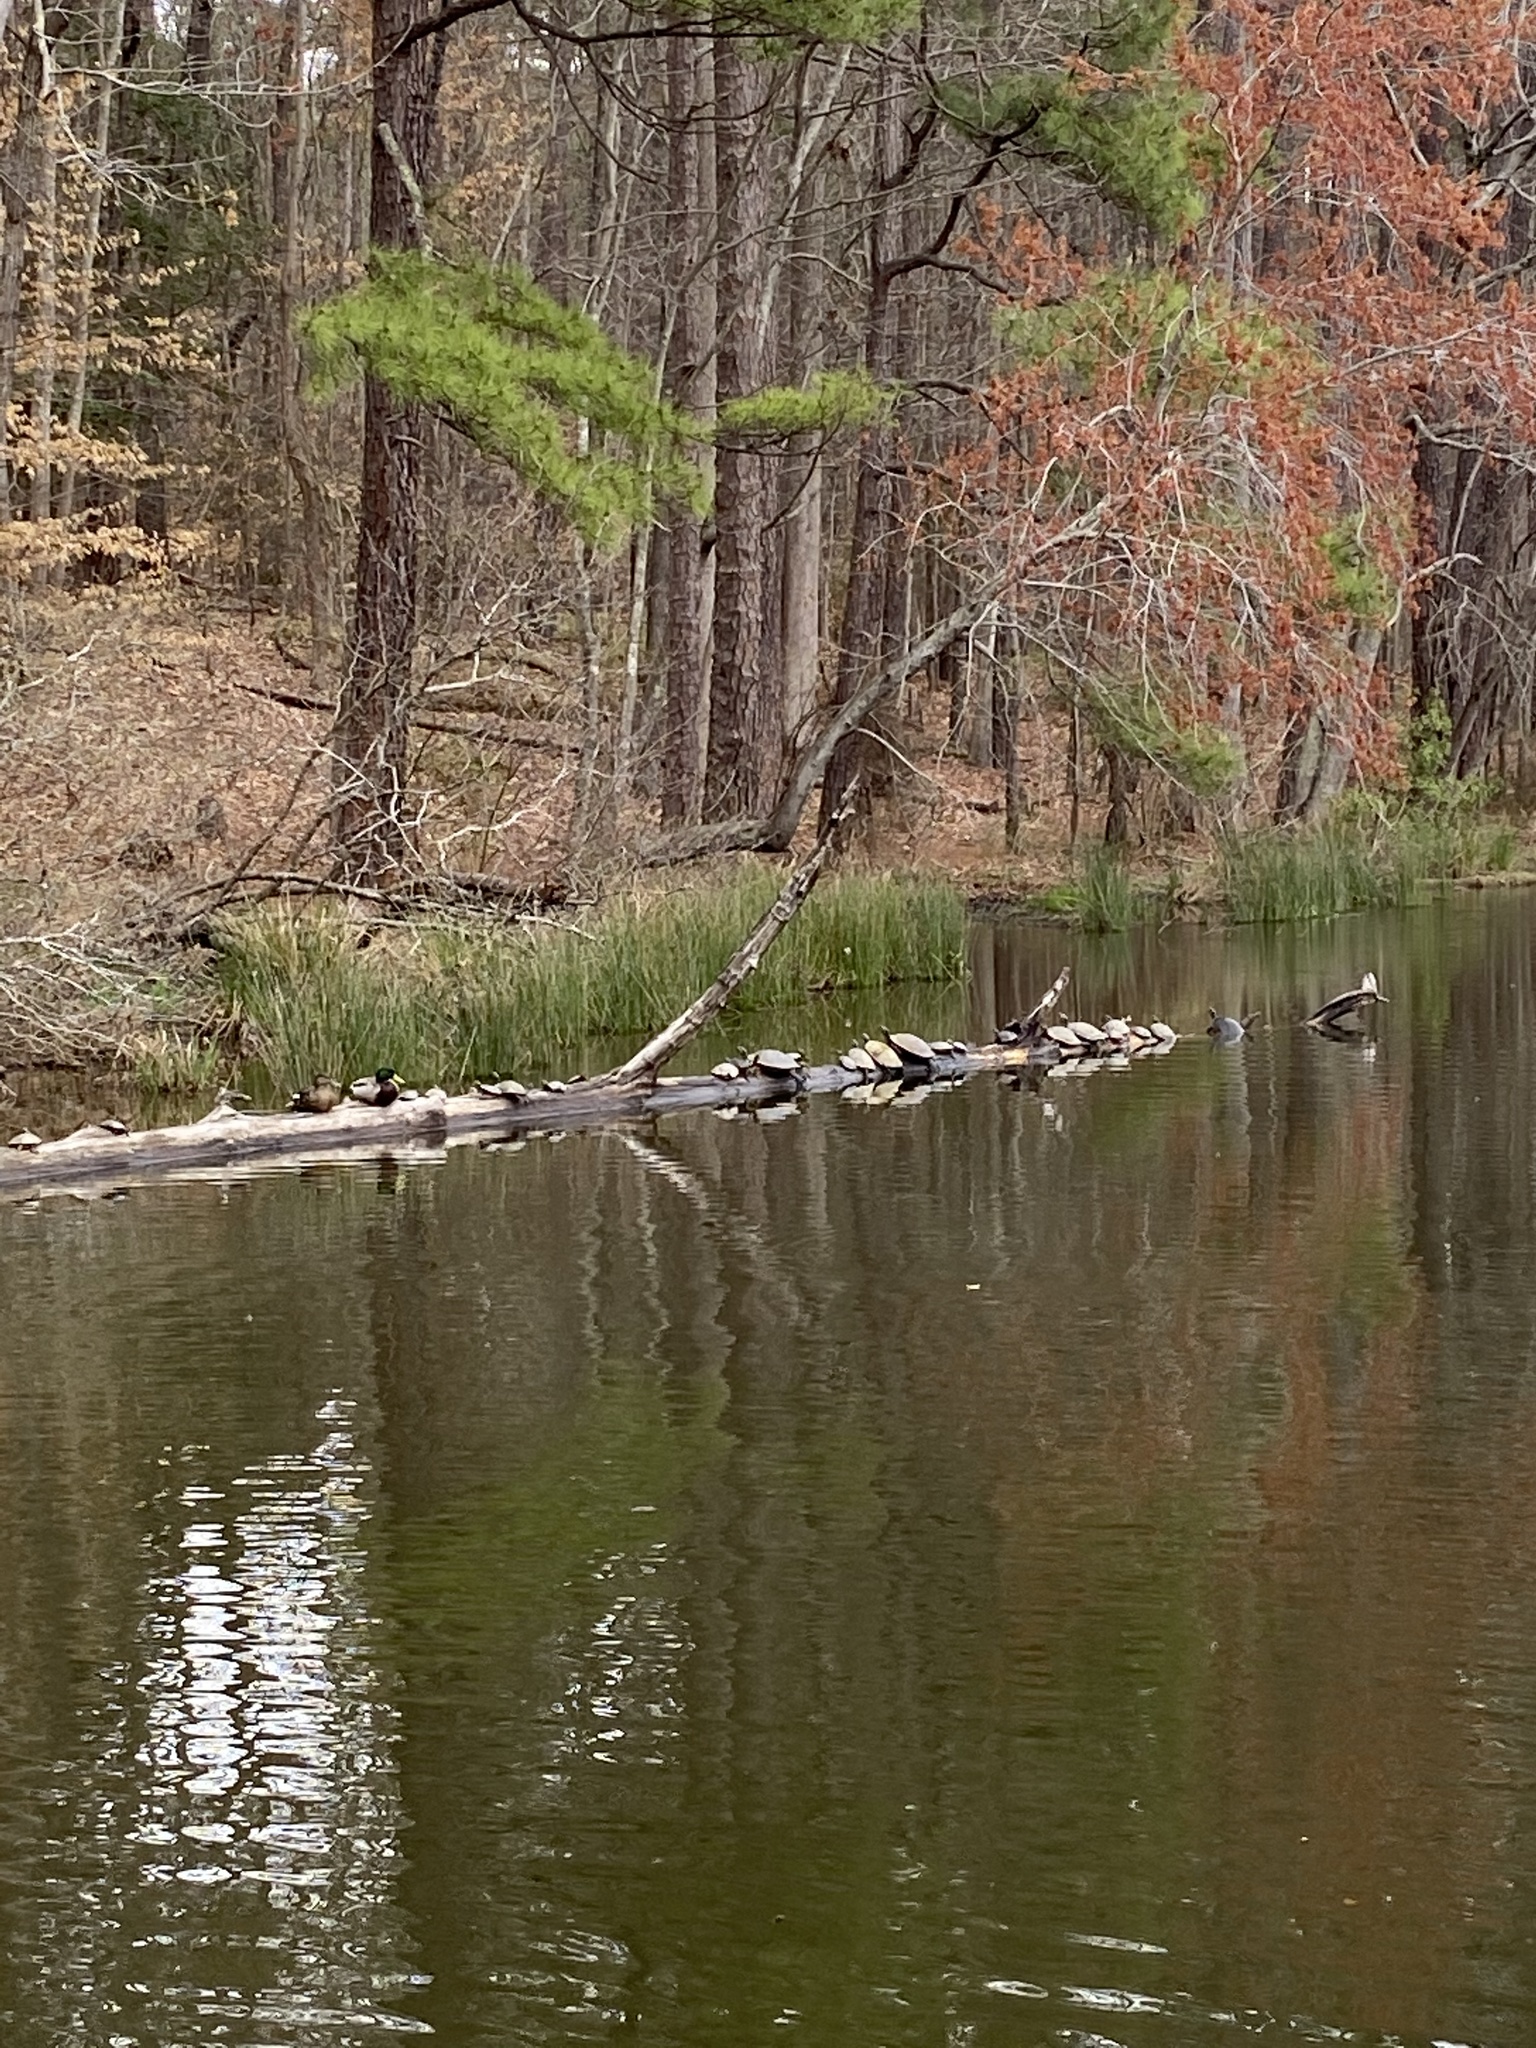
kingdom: Animalia
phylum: Chordata
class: Aves
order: Anseriformes
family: Anatidae
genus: Anas
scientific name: Anas platyrhynchos
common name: Mallard
